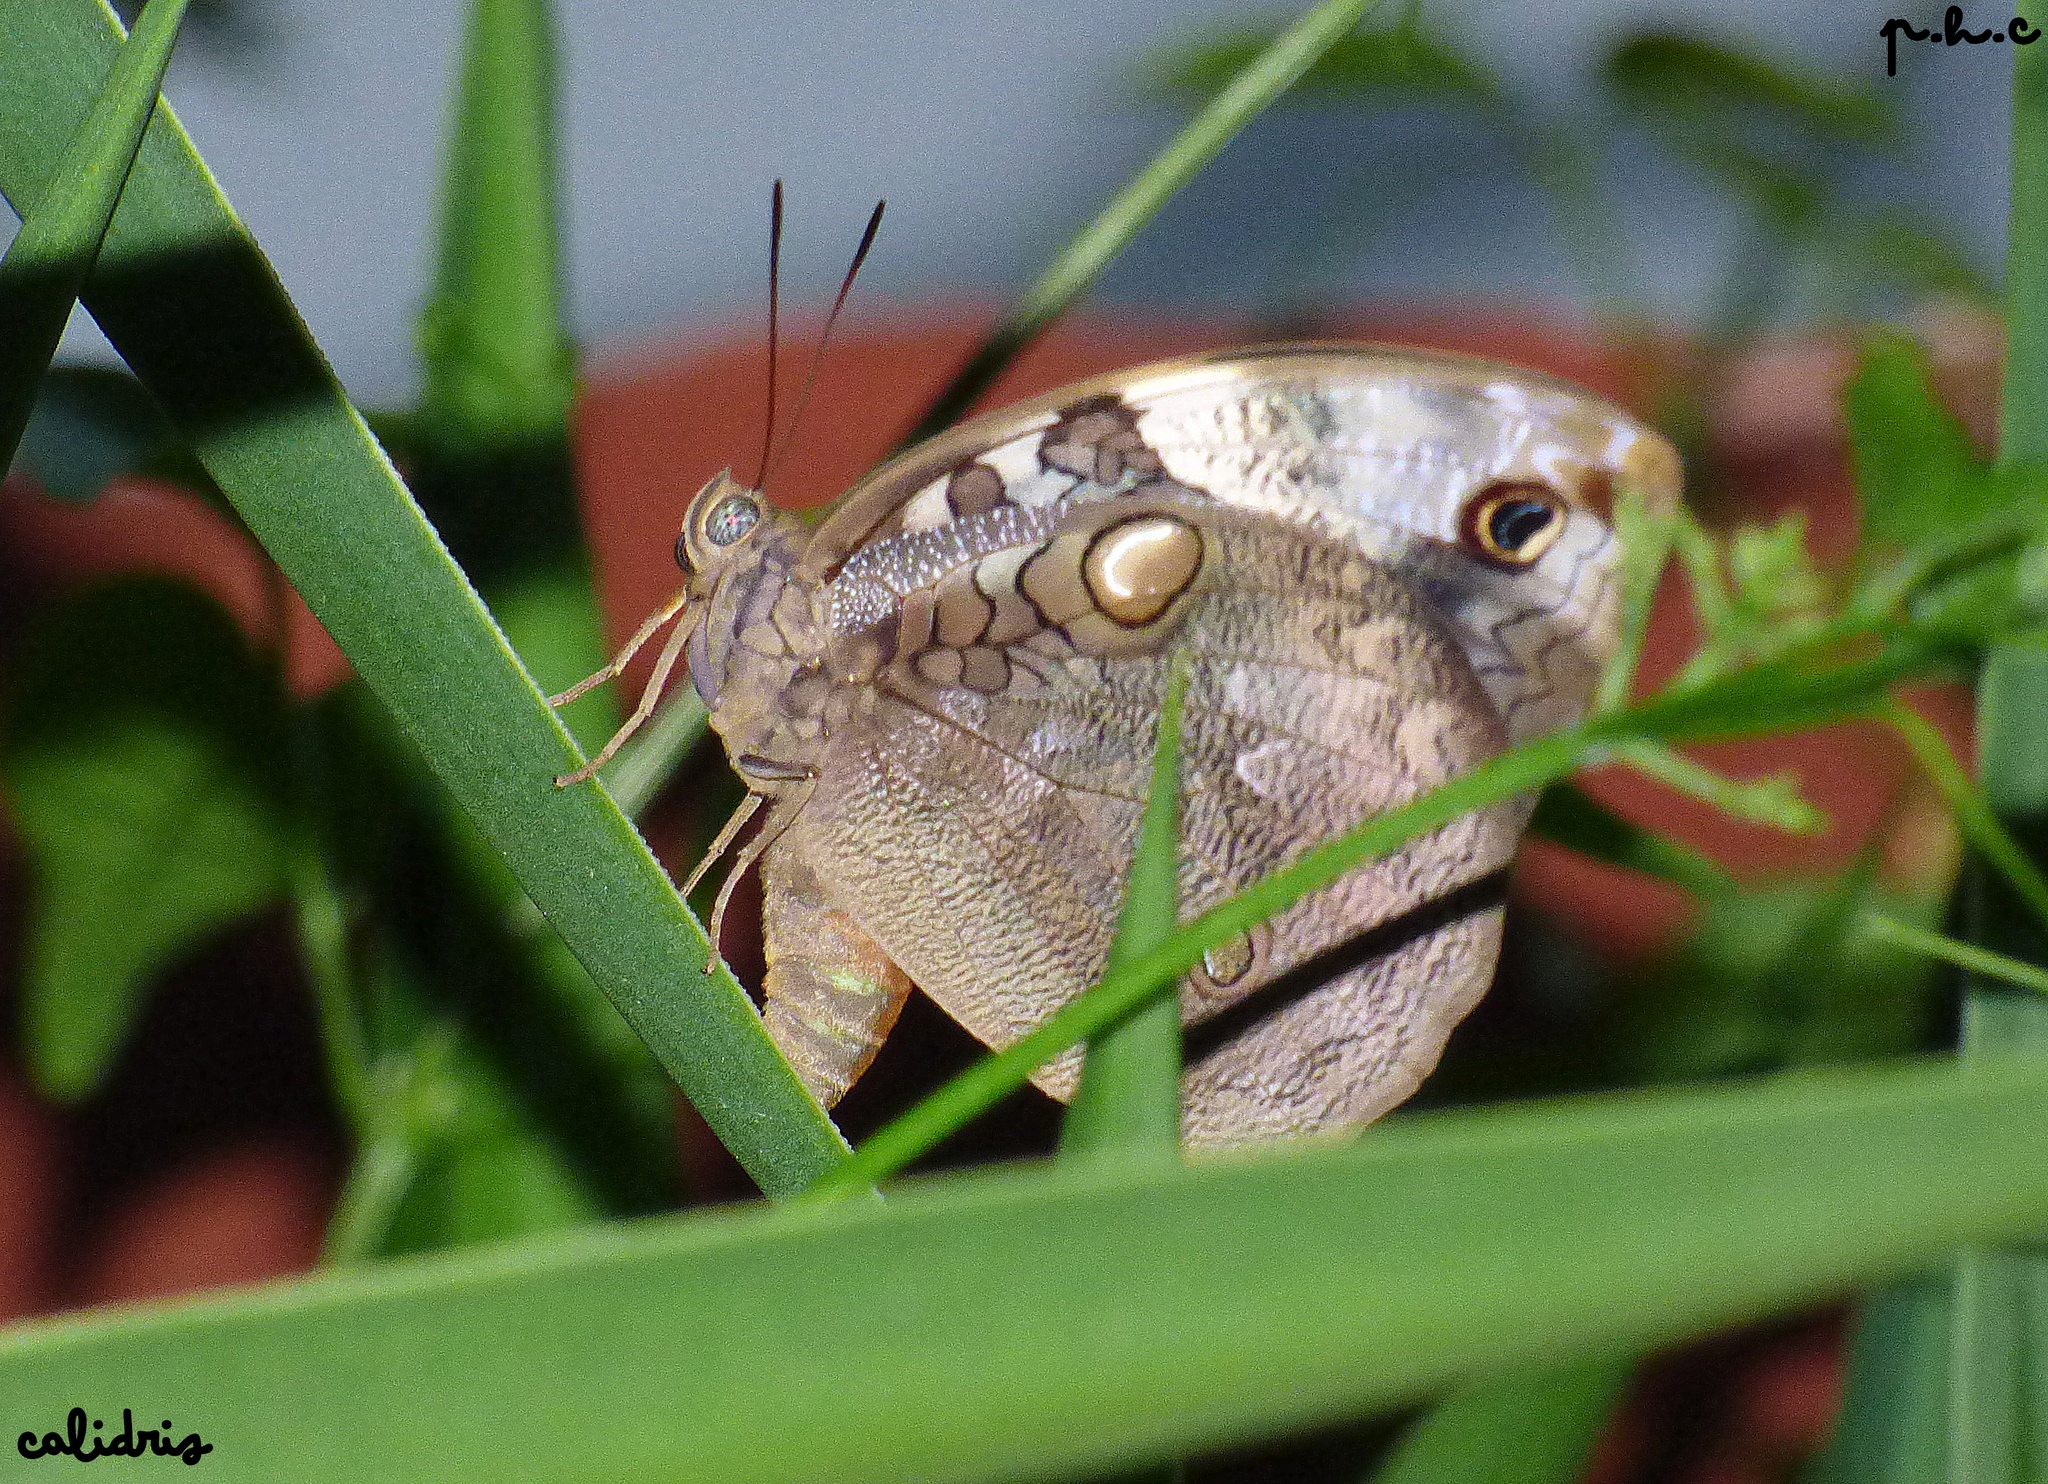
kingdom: Animalia
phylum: Arthropoda
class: Insecta
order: Lepidoptera
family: Nymphalidae
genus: Opsiphanes
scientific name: Opsiphanes invirae
